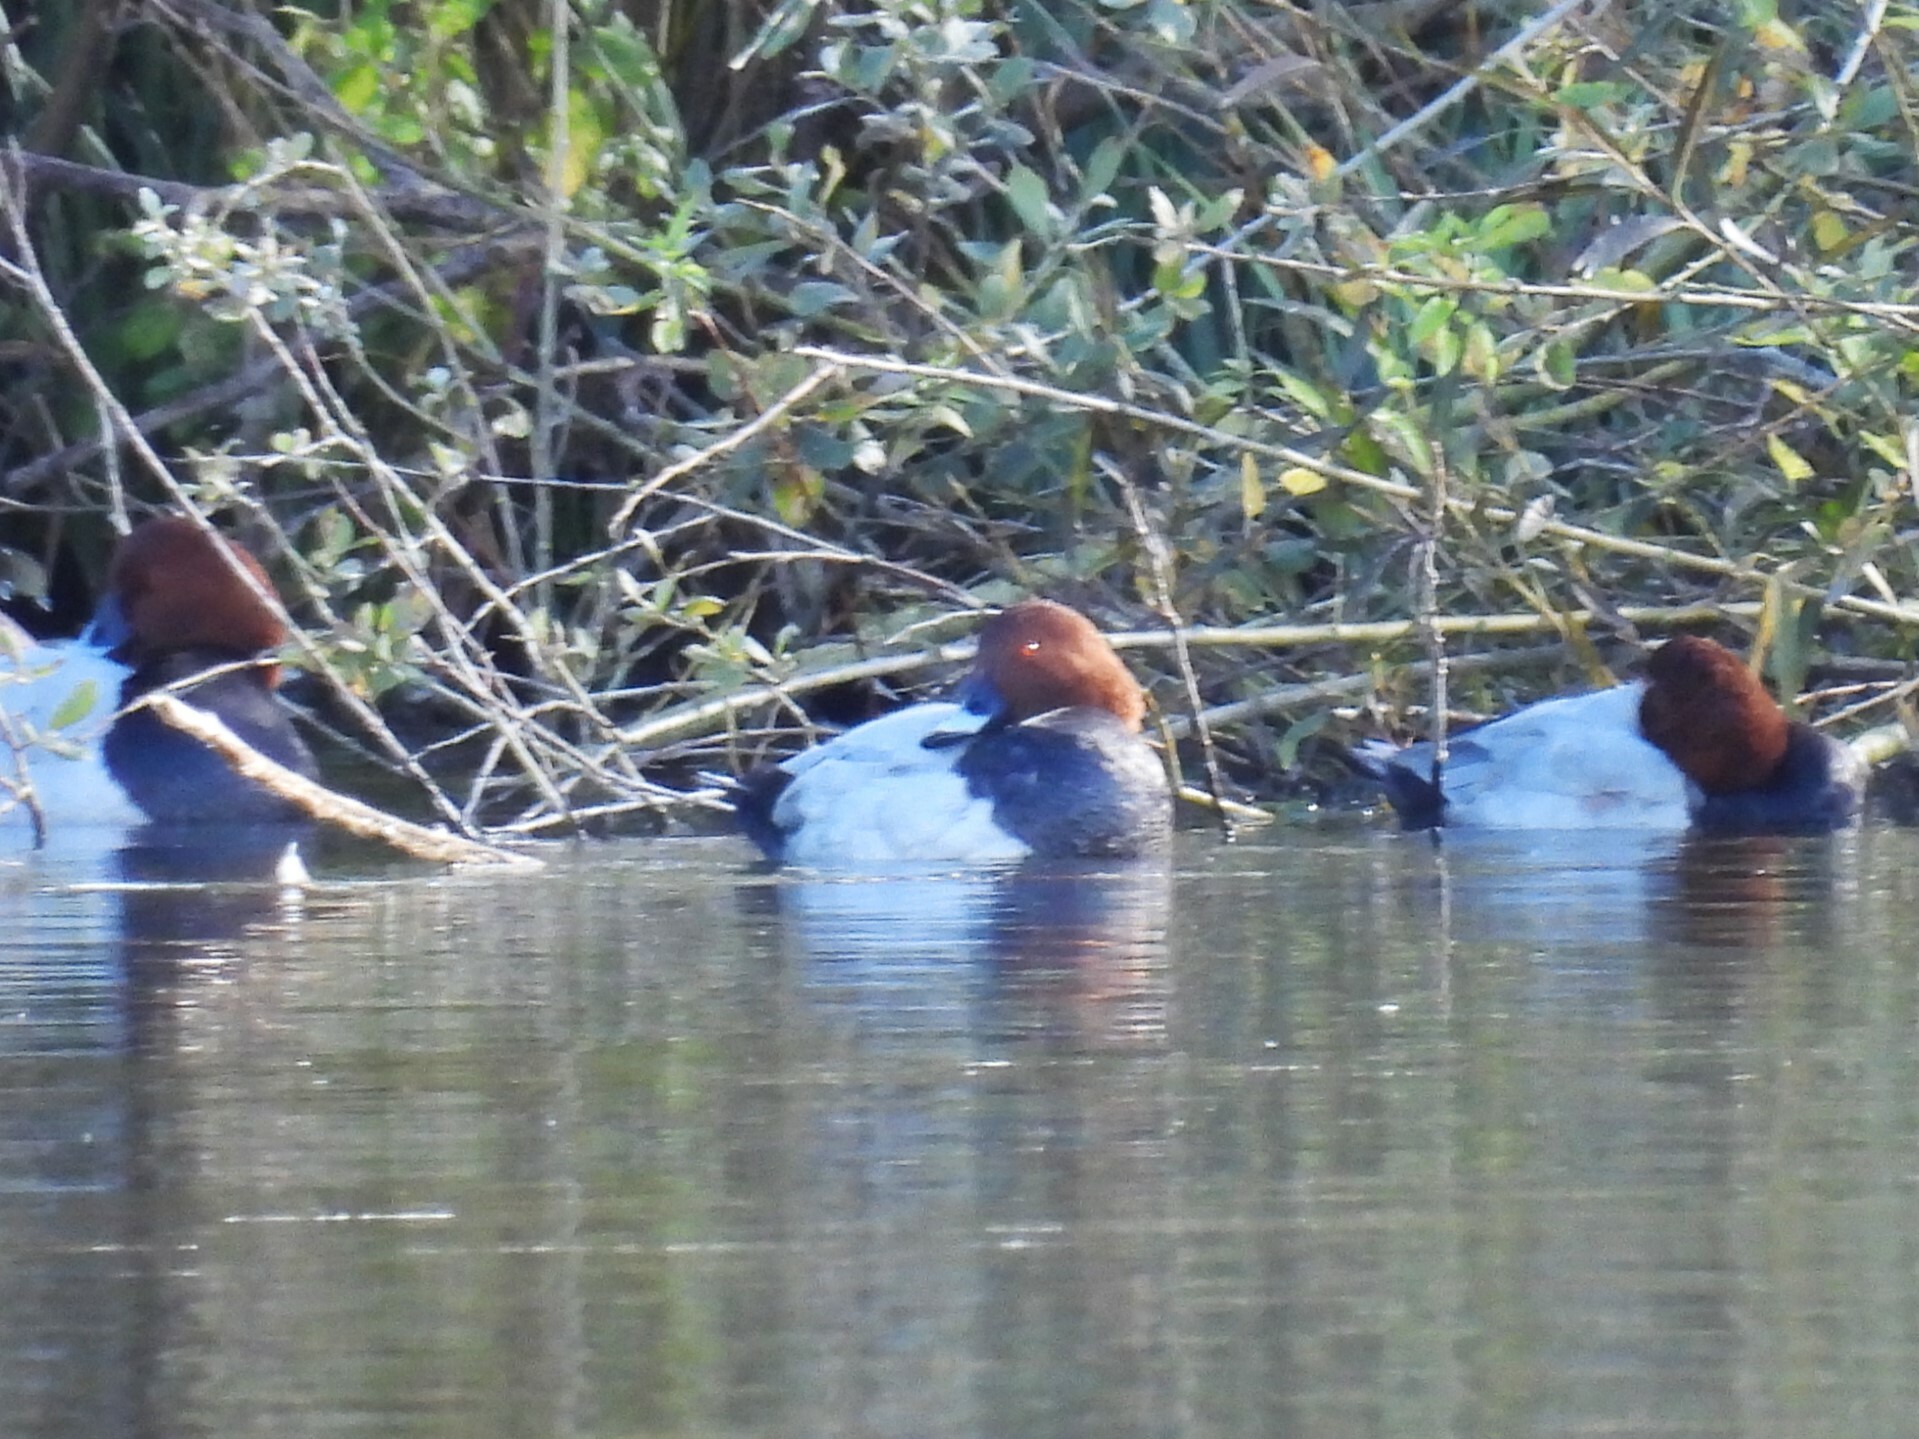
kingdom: Animalia
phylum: Chordata
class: Aves
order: Anseriformes
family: Anatidae
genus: Aythya
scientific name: Aythya ferina
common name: Common pochard
